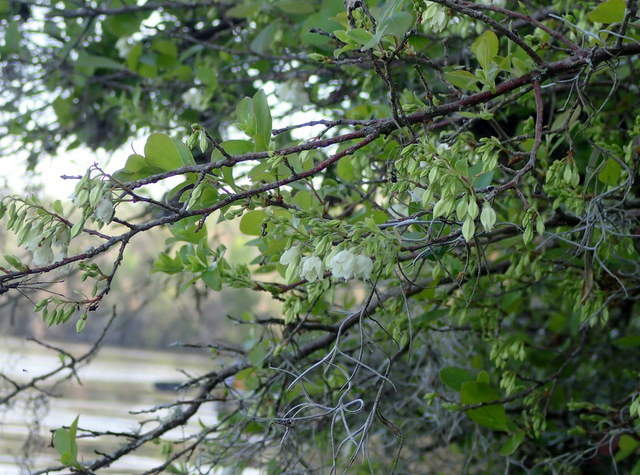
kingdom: Plantae
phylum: Tracheophyta
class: Magnoliopsida
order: Ericales
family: Ericaceae
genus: Vaccinium
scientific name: Vaccinium arboreum
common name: Farkleberry
